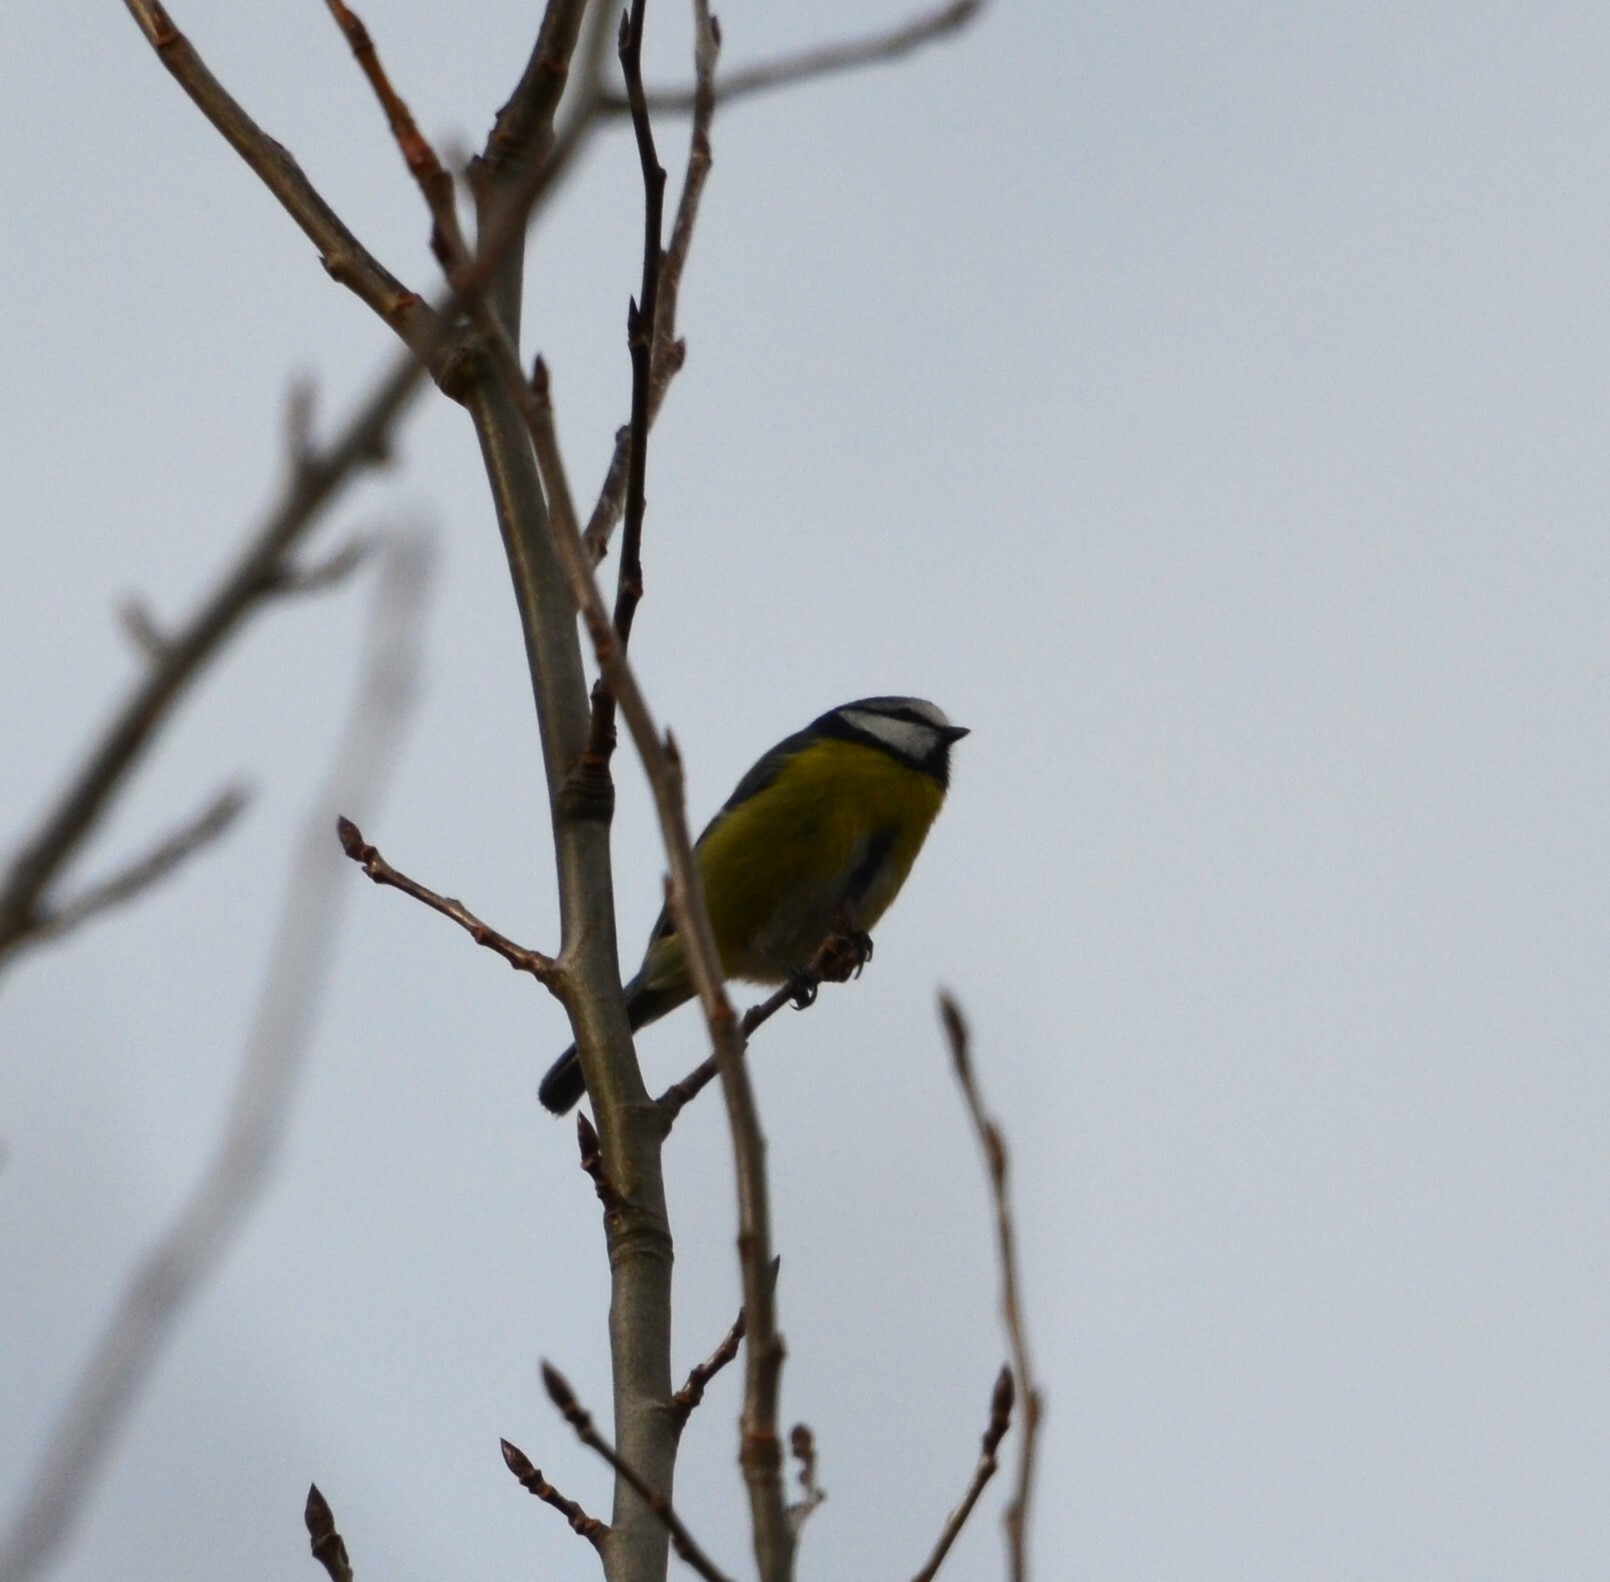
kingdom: Animalia
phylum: Chordata
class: Aves
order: Passeriformes
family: Paridae
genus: Cyanistes
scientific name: Cyanistes caeruleus
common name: Eurasian blue tit
